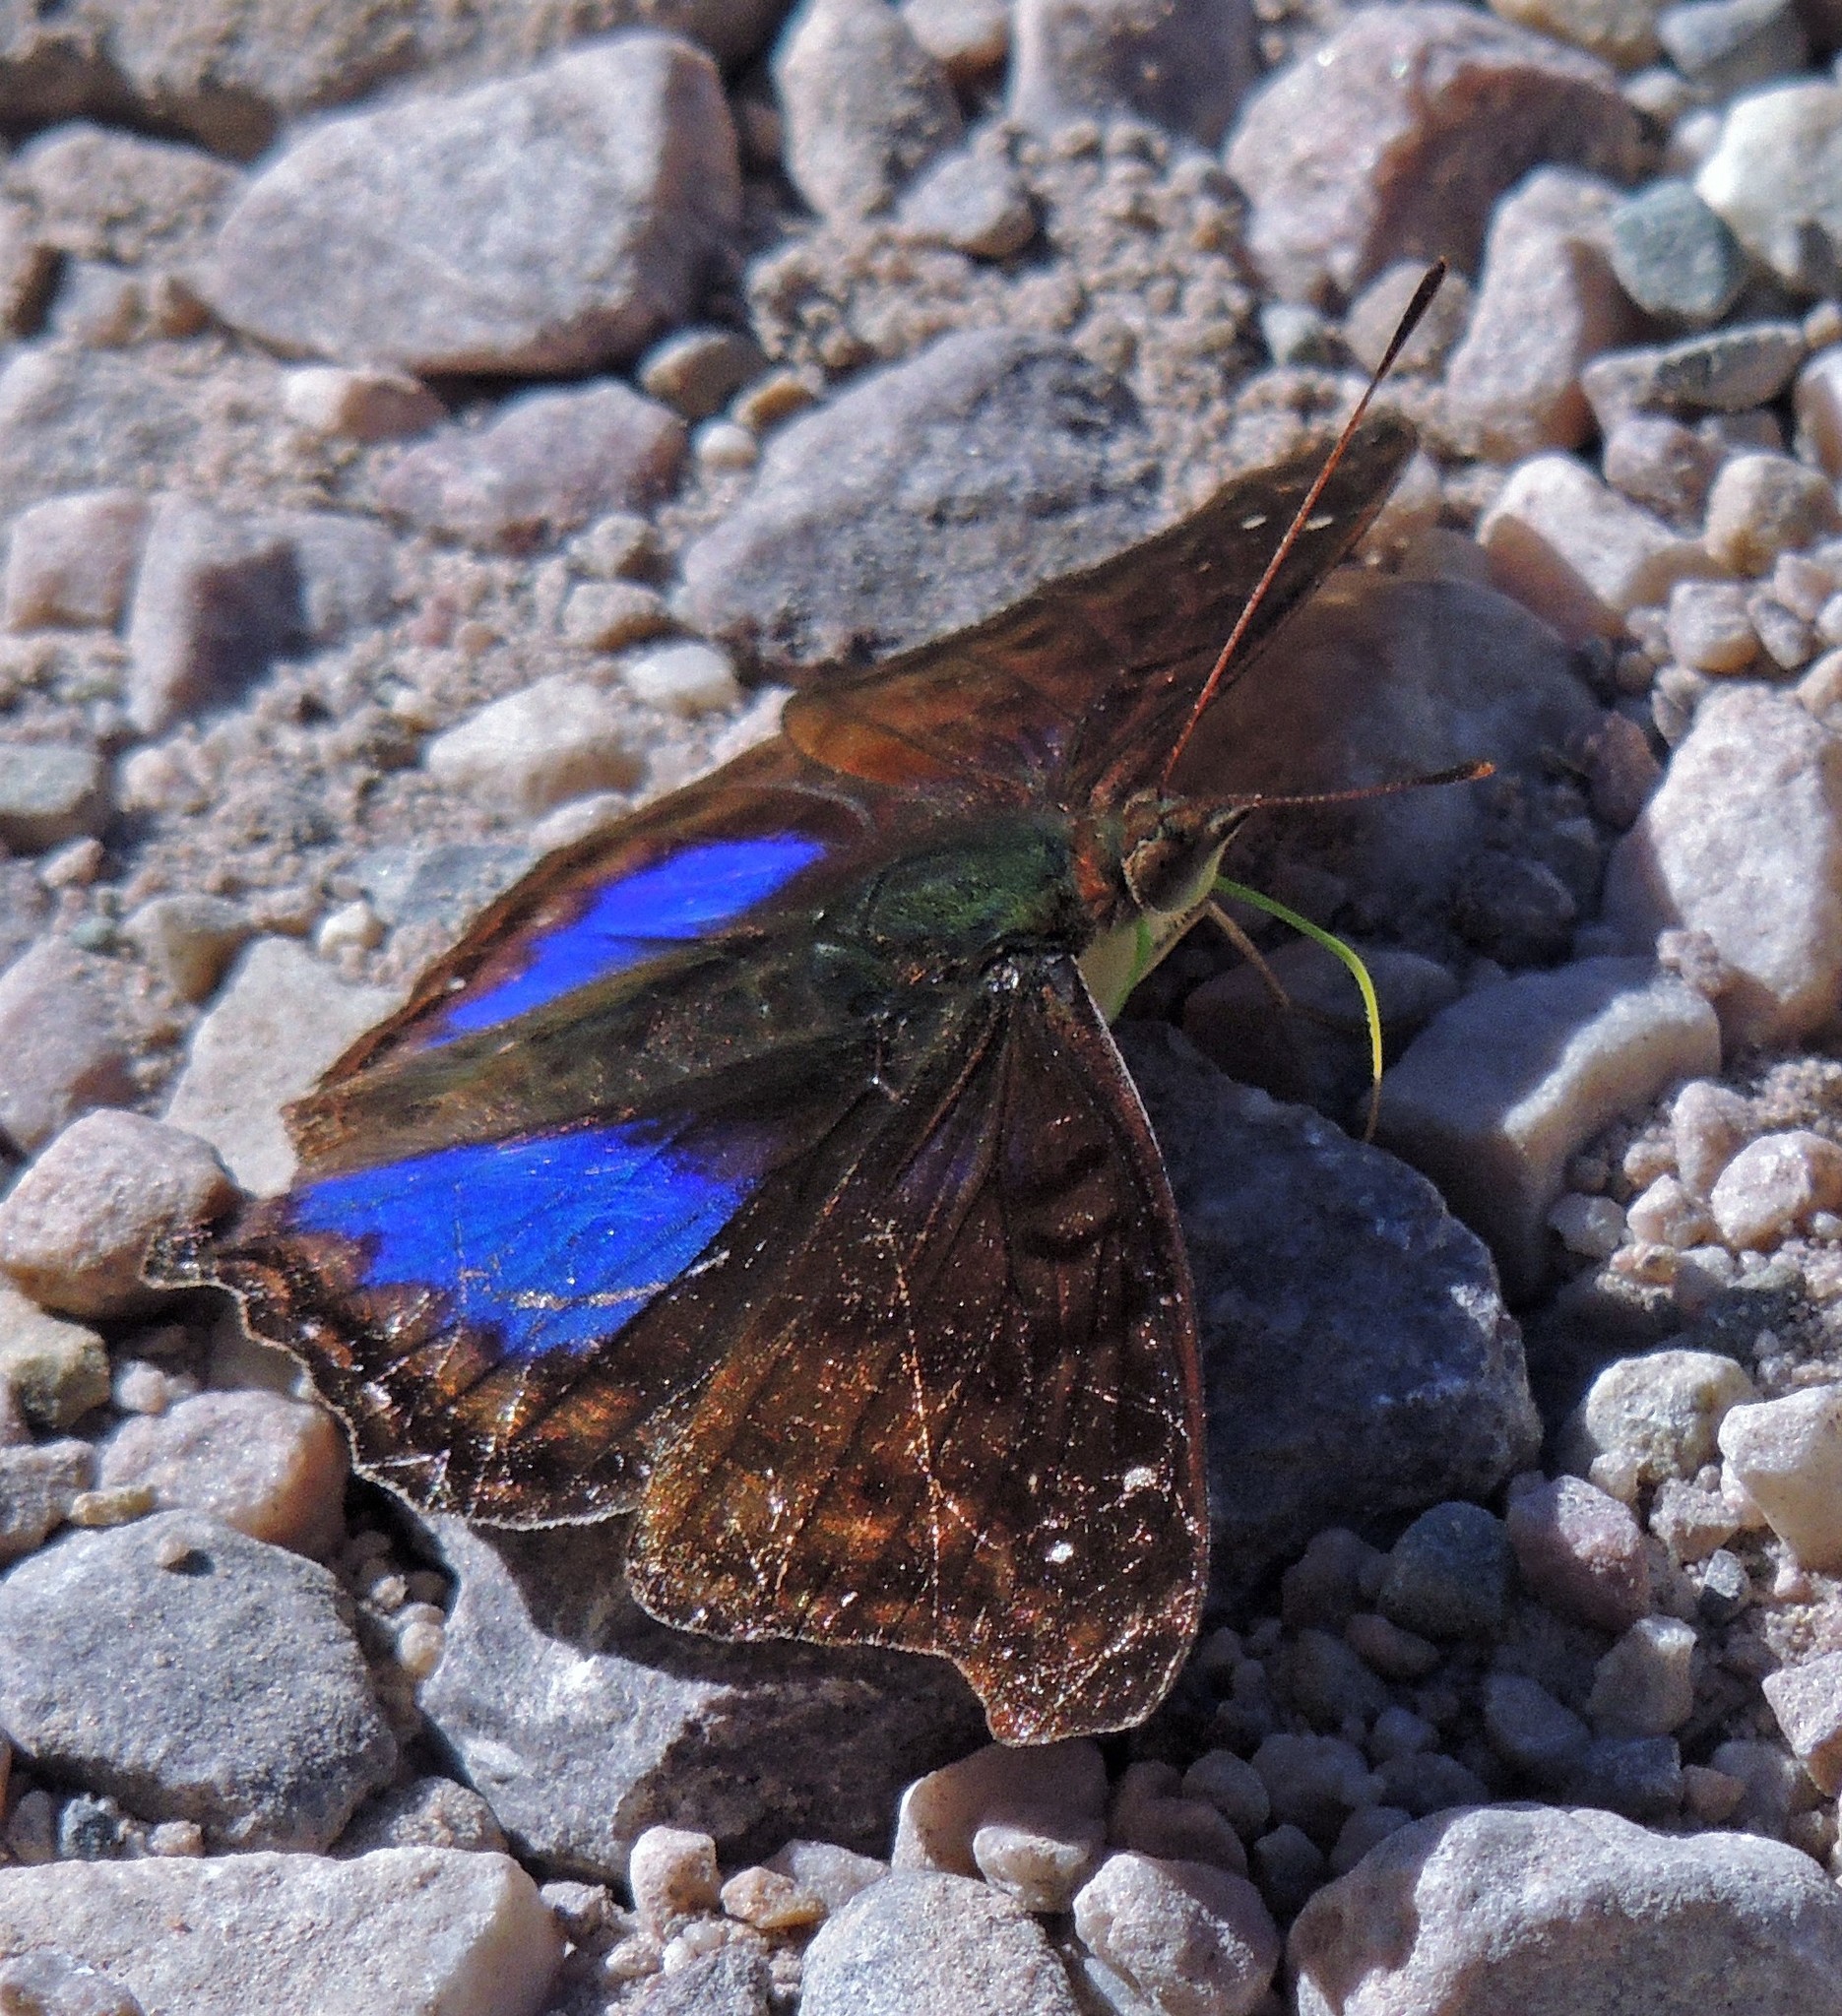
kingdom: Animalia
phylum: Arthropoda
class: Insecta
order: Lepidoptera
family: Nymphalidae
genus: Doxocopa
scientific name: Doxocopa cyane
